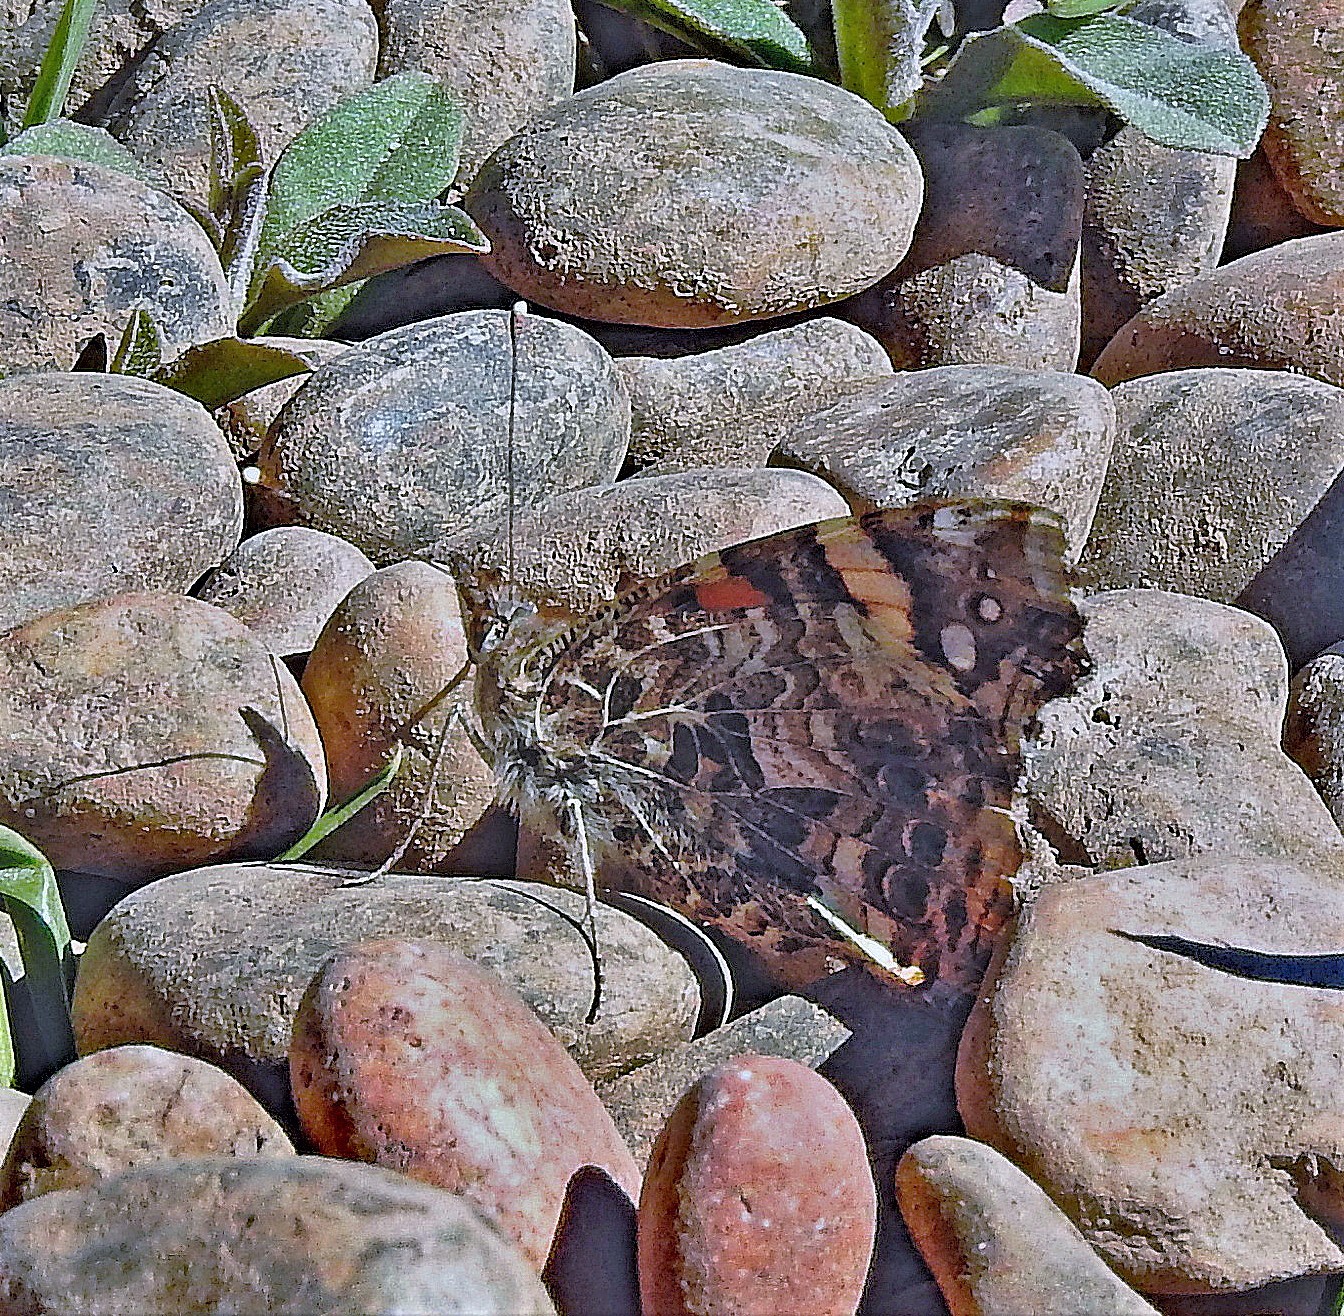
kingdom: Animalia
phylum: Arthropoda
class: Insecta
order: Lepidoptera
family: Nymphalidae
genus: Vanessa
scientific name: Vanessa carye
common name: Subtropical lady
